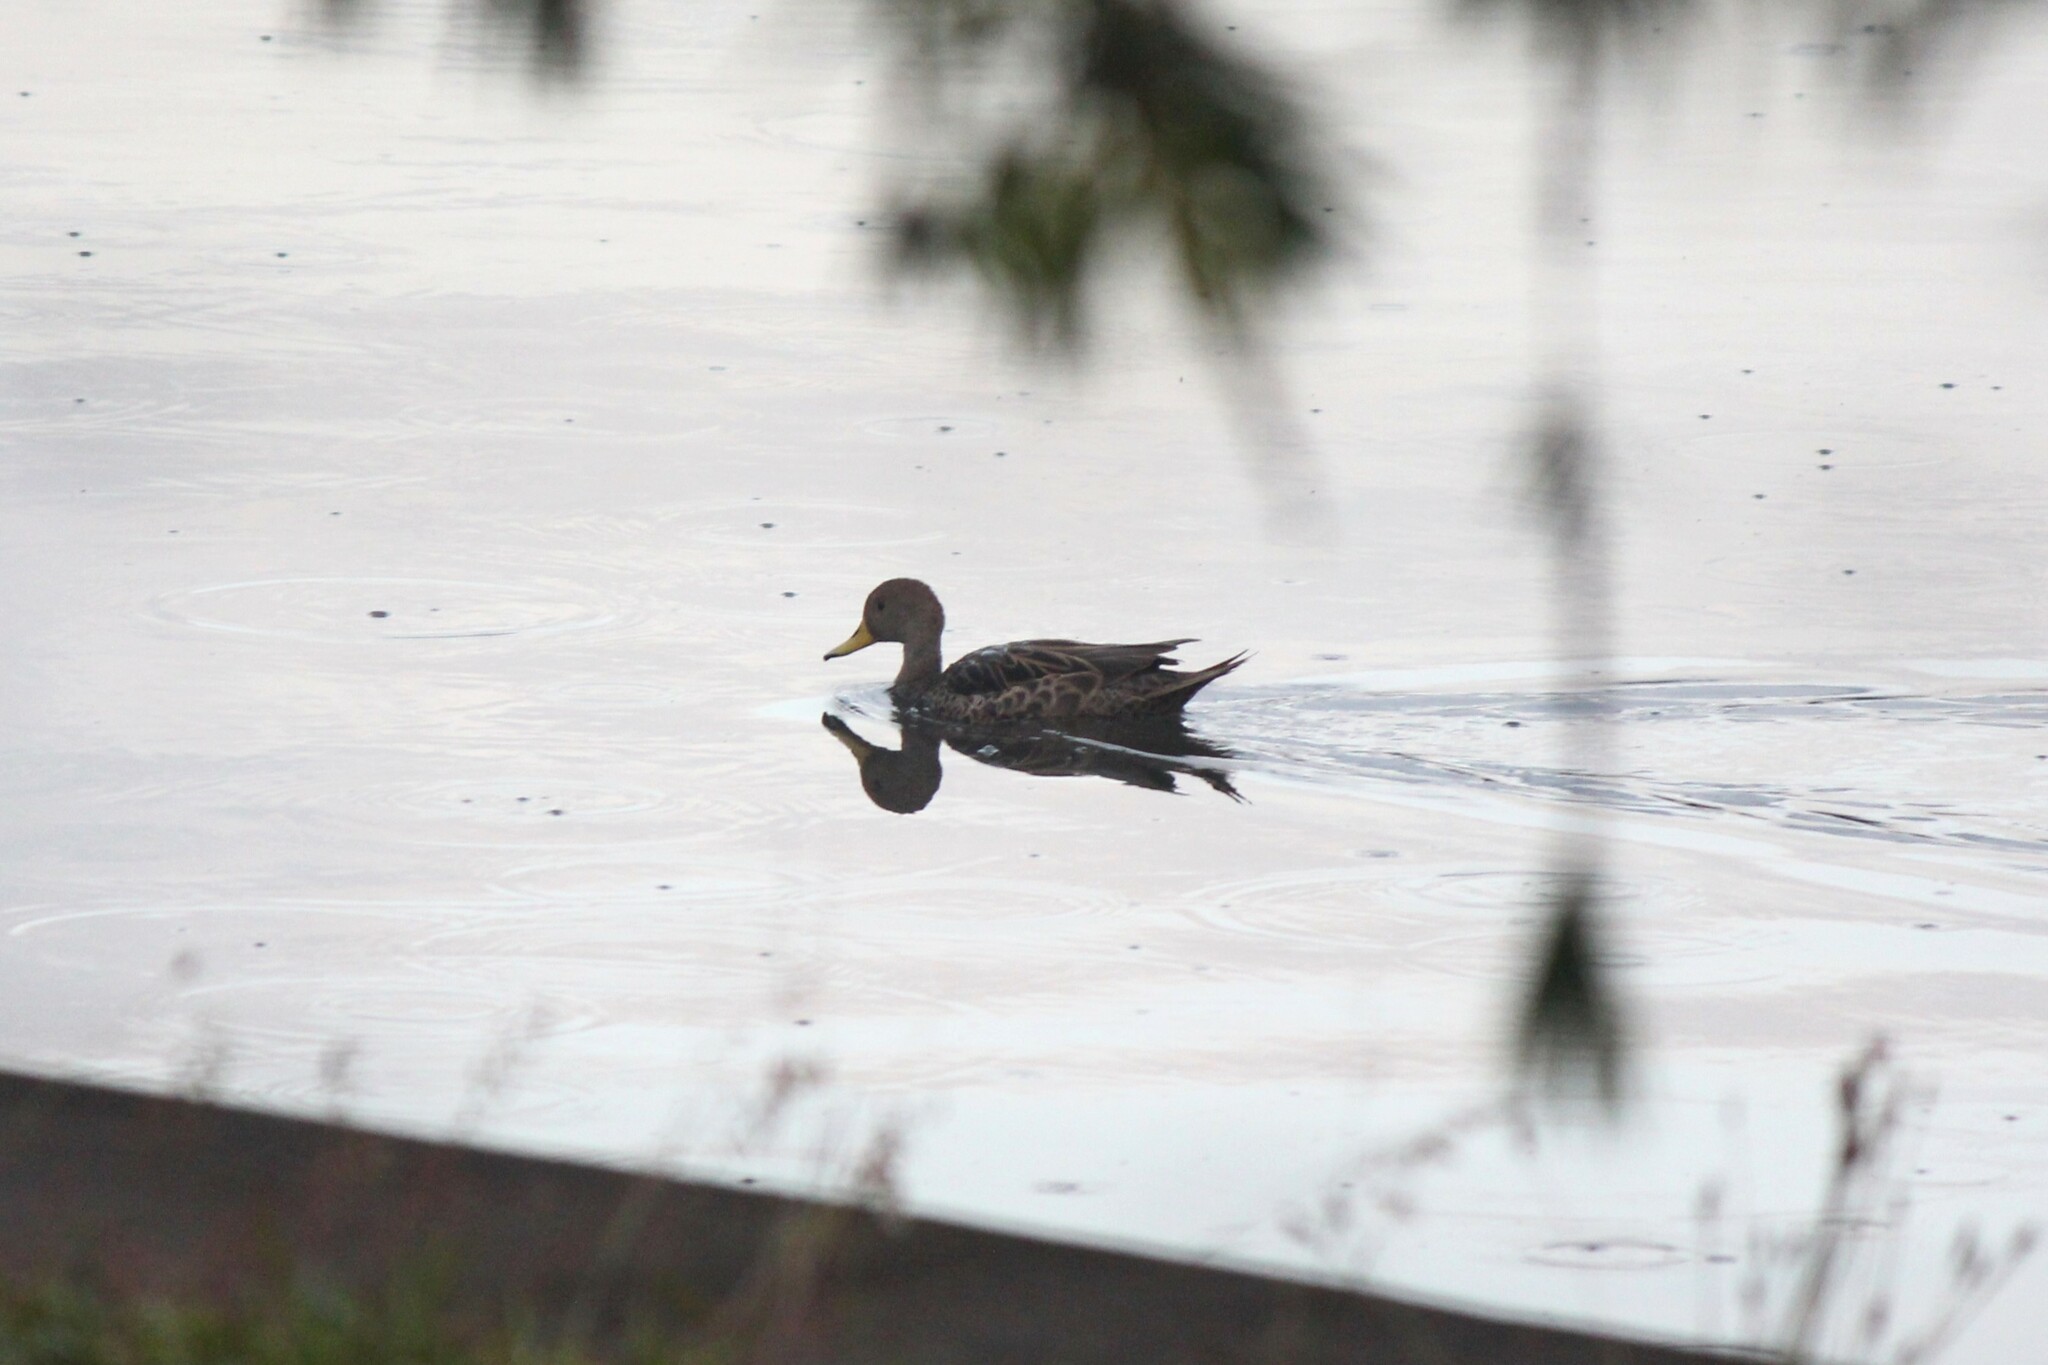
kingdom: Animalia
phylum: Chordata
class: Aves
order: Anseriformes
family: Anatidae
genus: Anas
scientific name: Anas georgica
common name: Yellow-billed pintail
